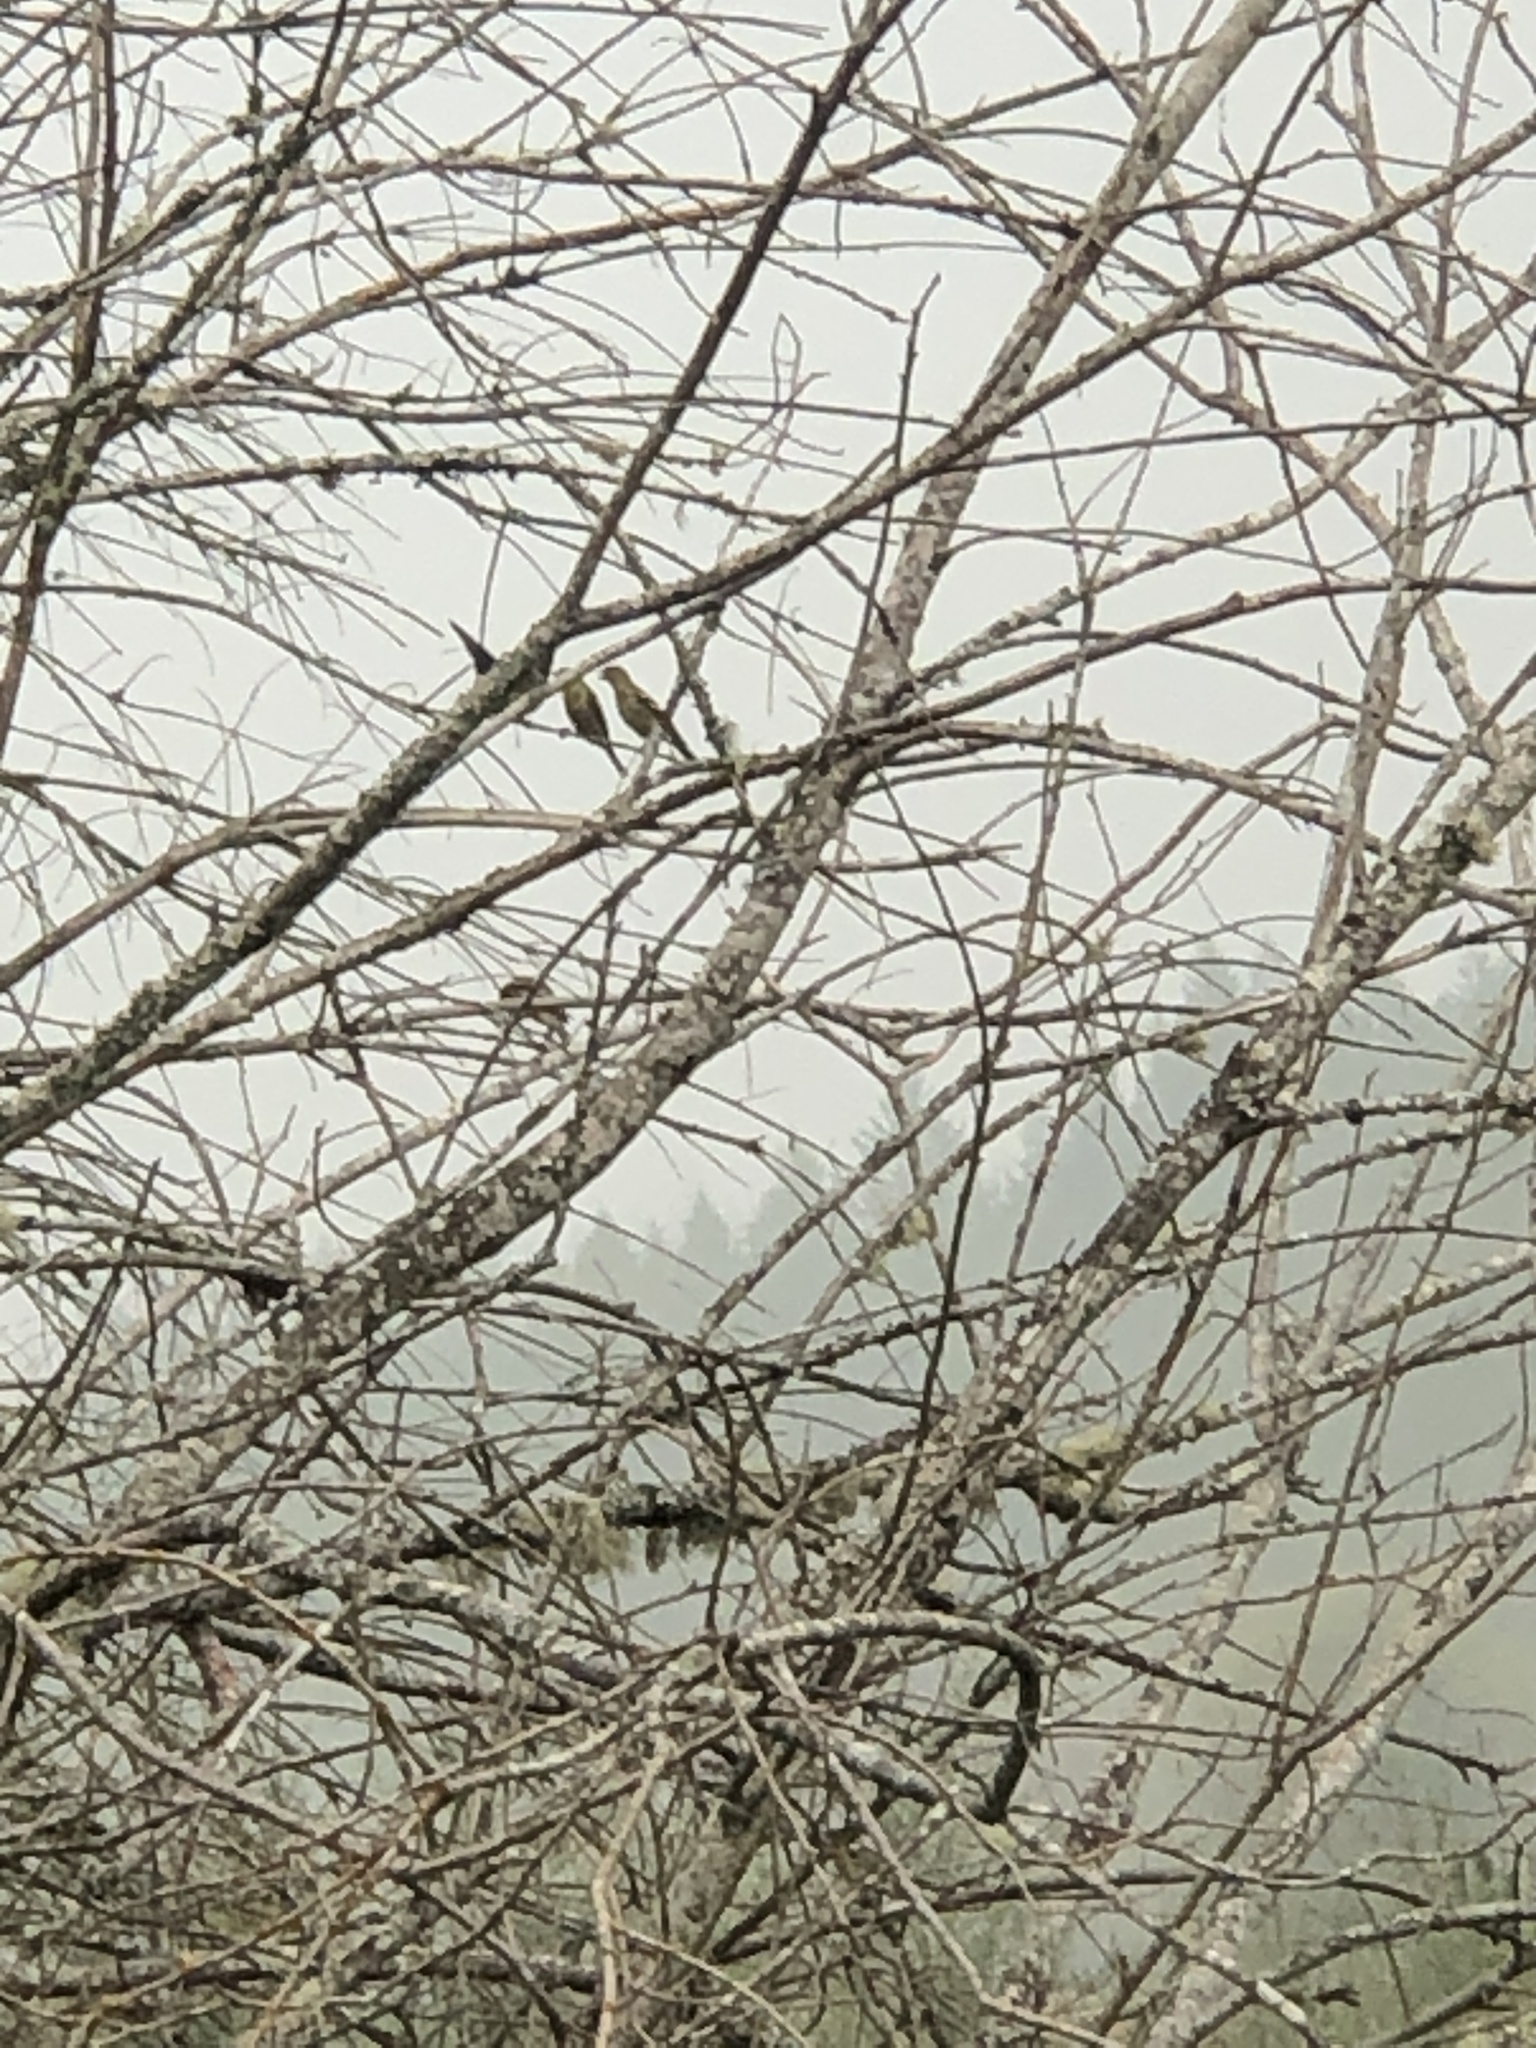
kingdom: Animalia
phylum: Chordata
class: Aves
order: Passeriformes
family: Fringillidae
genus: Spinus
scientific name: Spinus tristis
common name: American goldfinch
